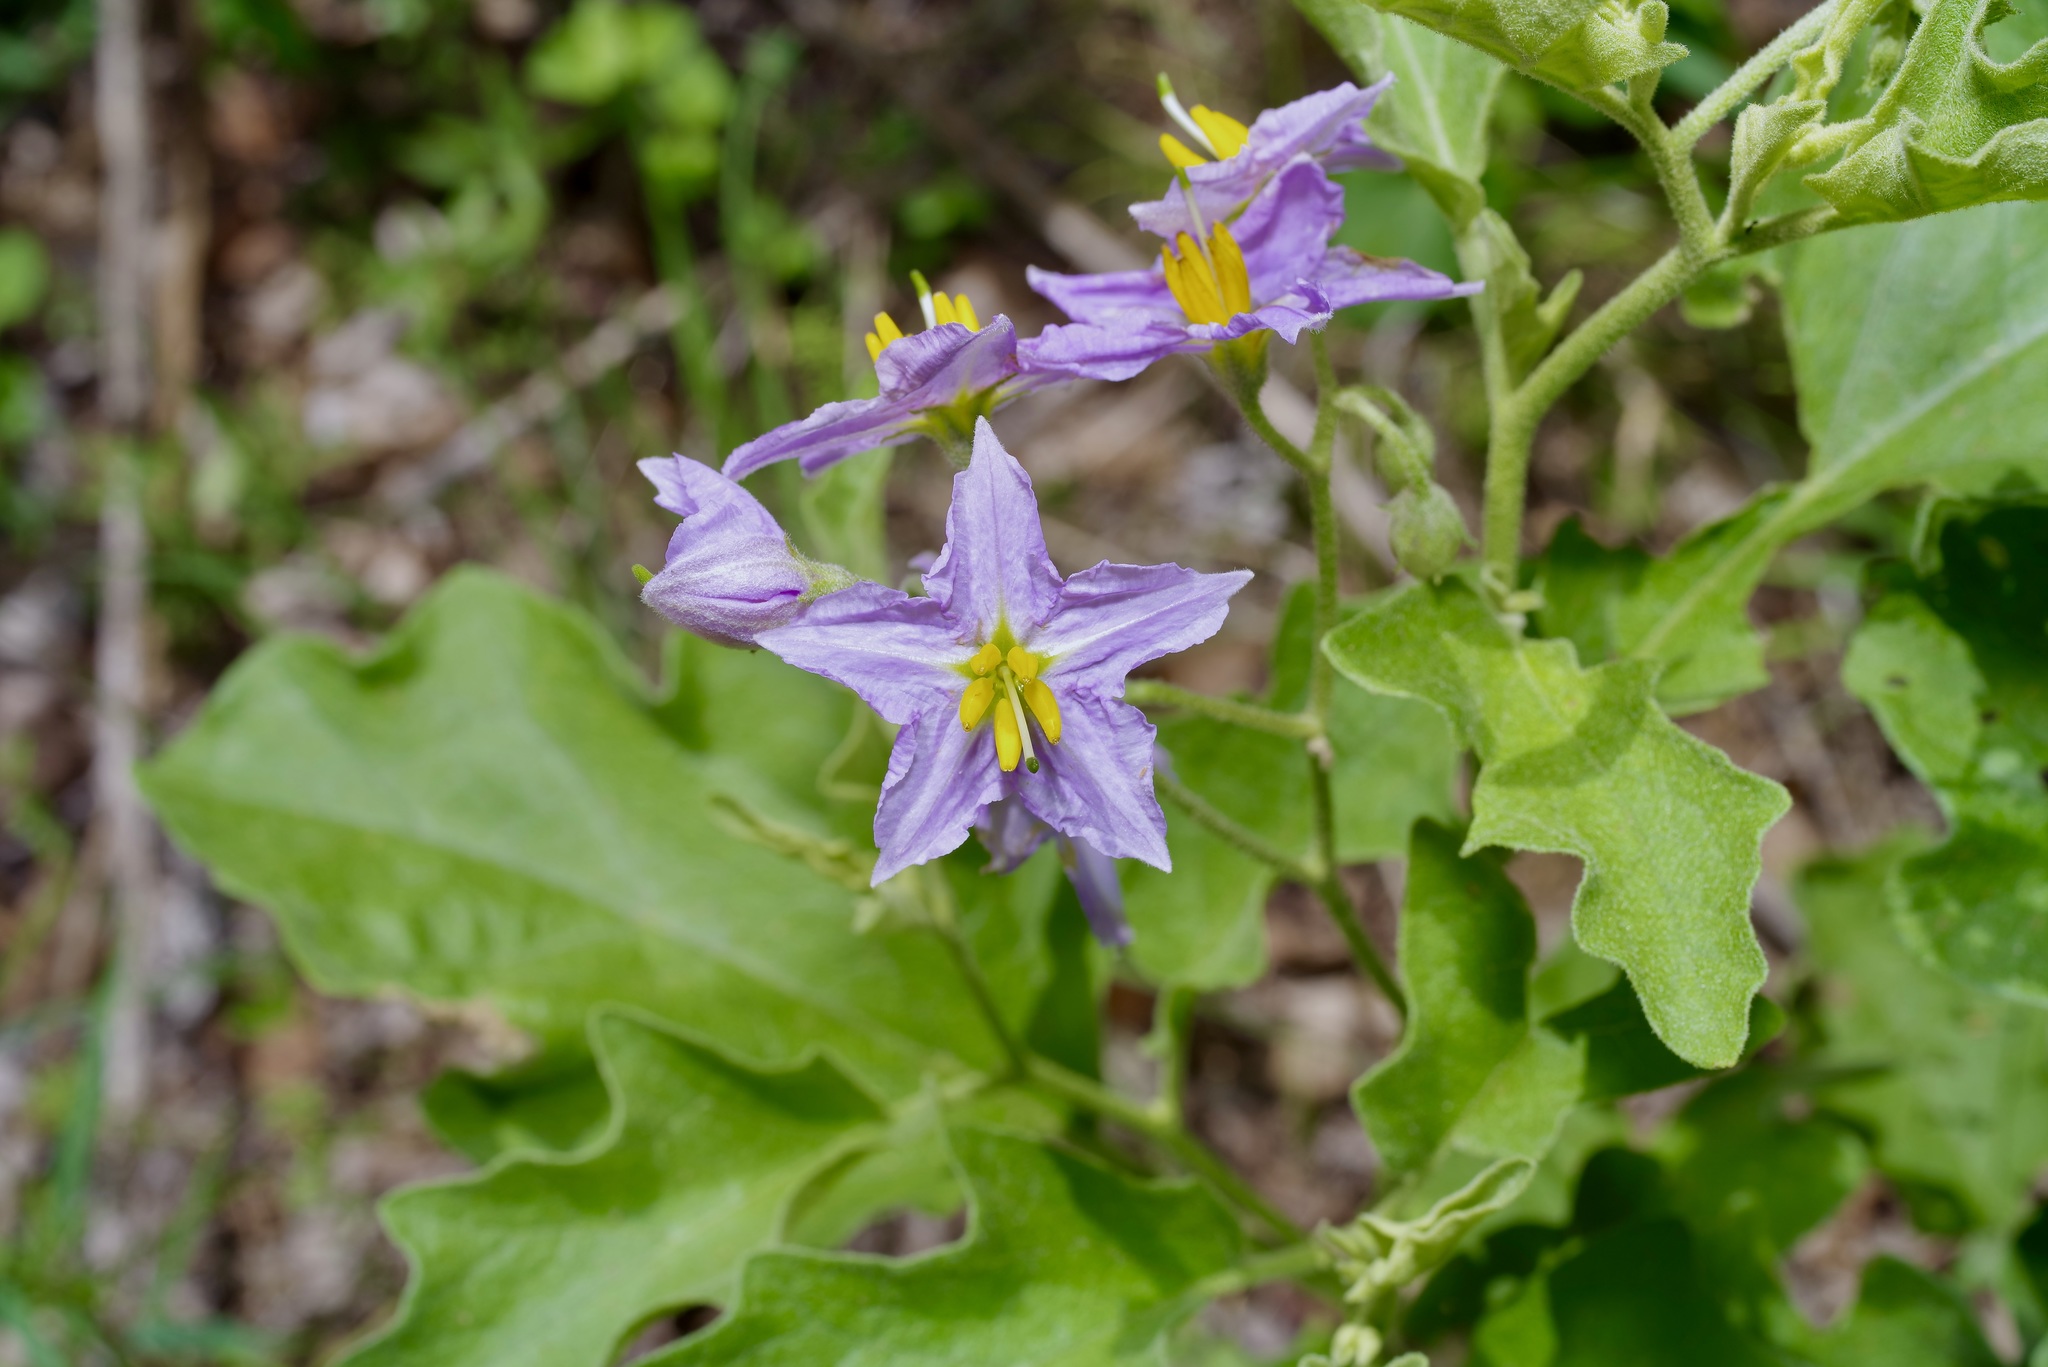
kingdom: Plantae
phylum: Tracheophyta
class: Magnoliopsida
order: Solanales
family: Solanaceae
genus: Solanum
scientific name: Solanum dimidiatum
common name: Carolina horse-nettle
